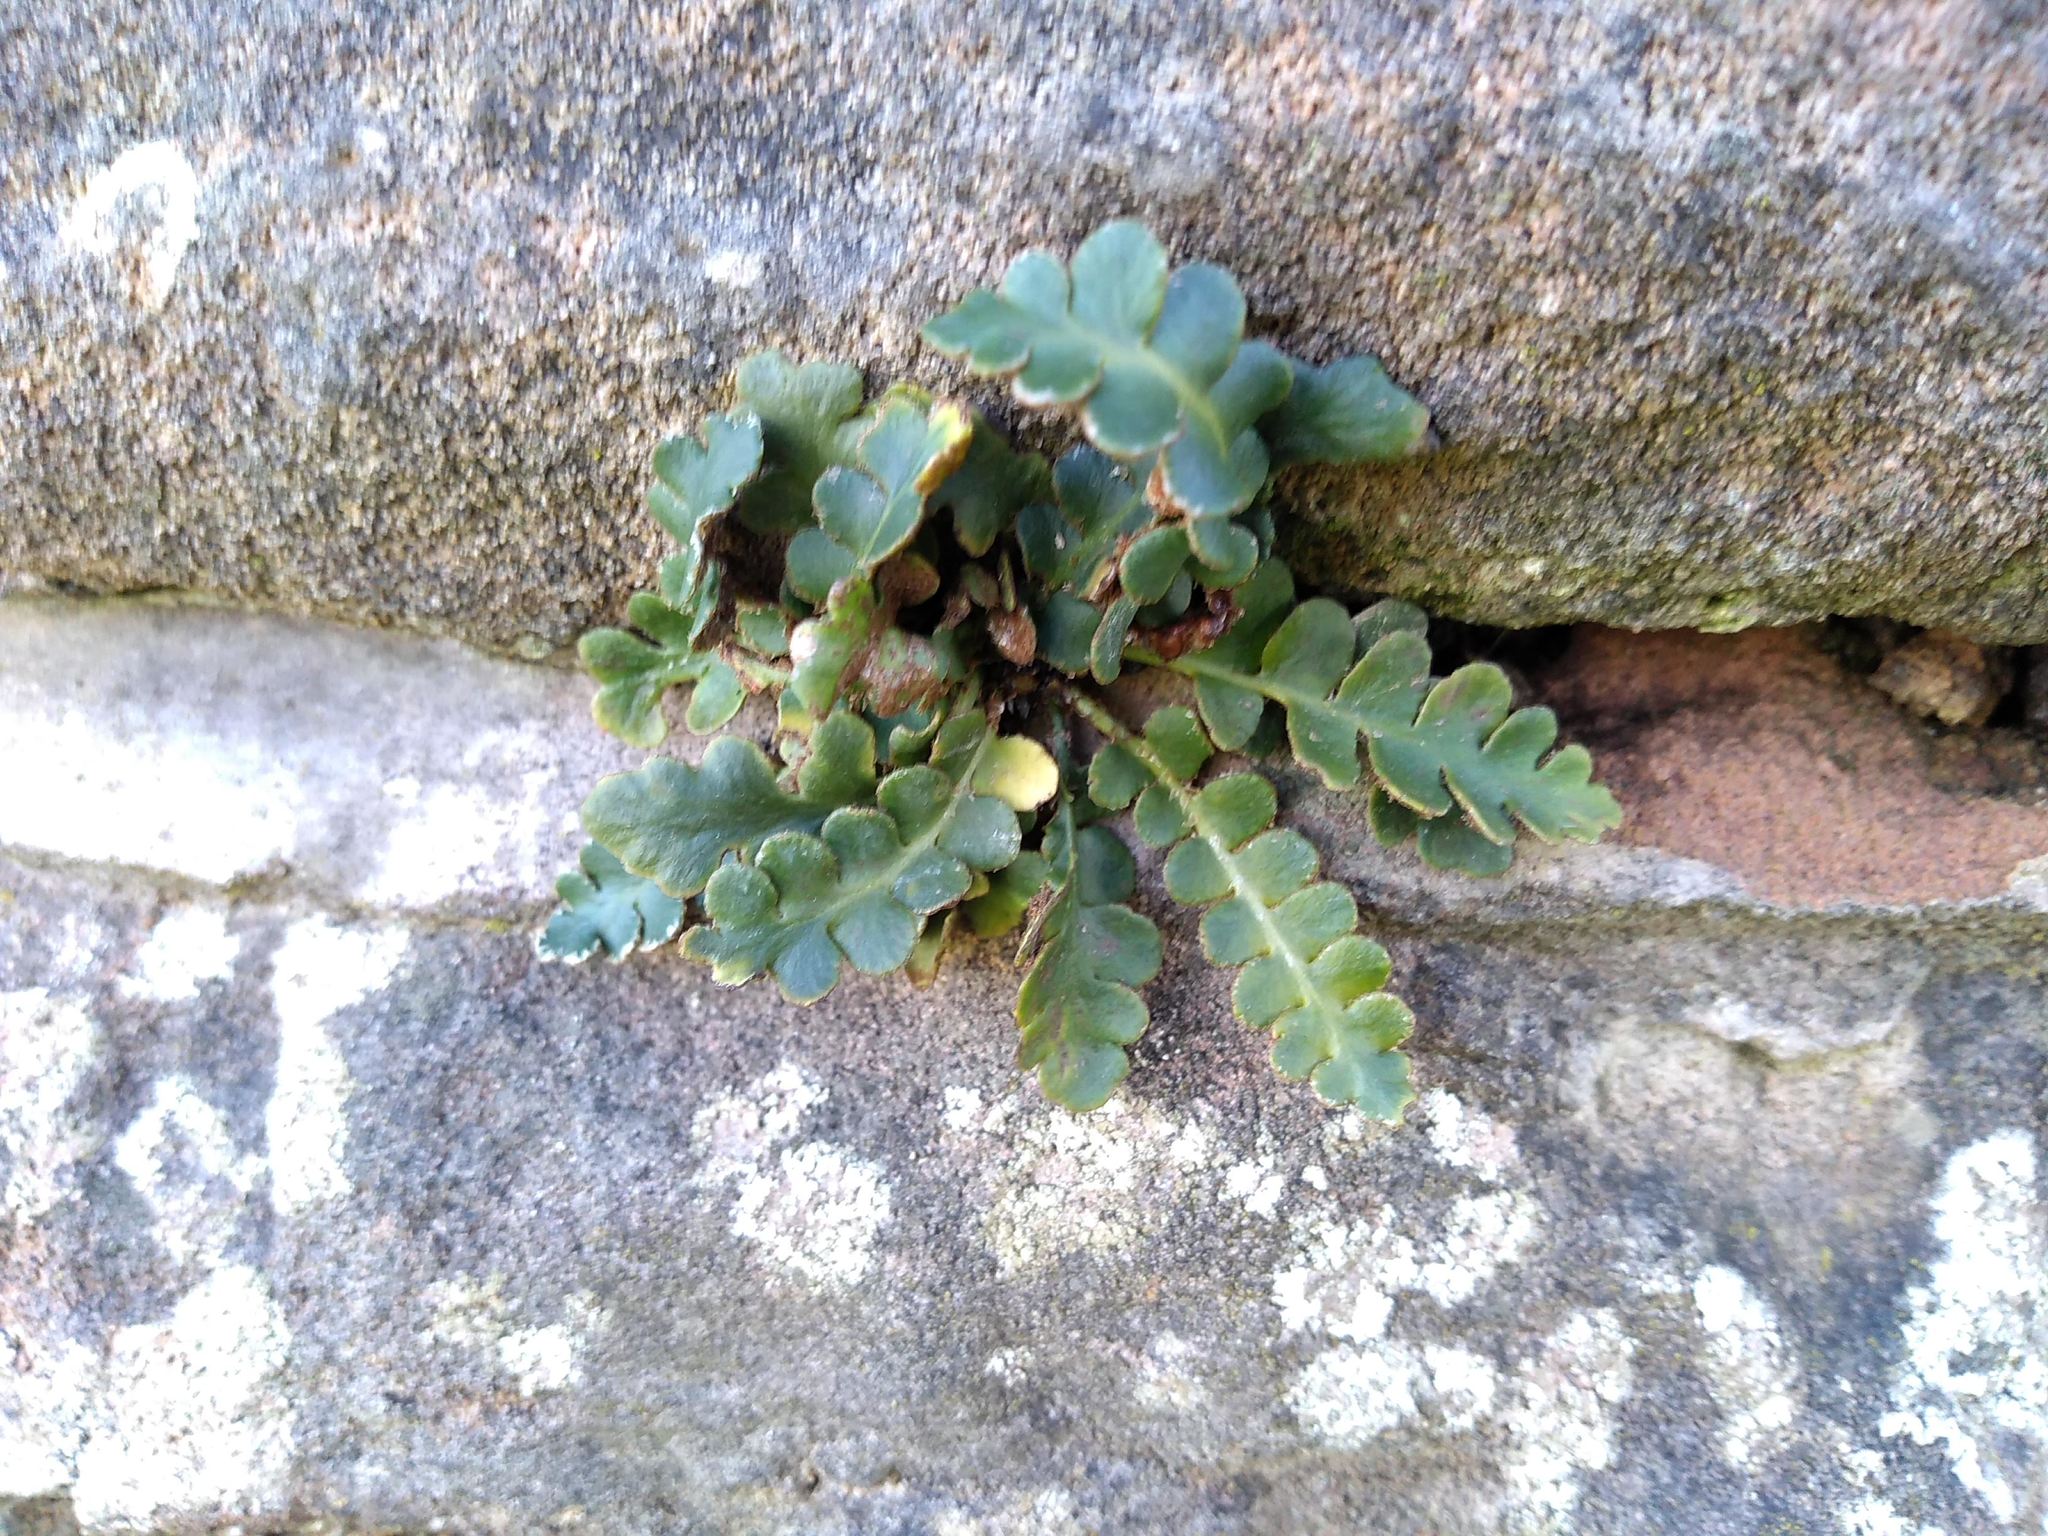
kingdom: Plantae
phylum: Tracheophyta
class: Polypodiopsida
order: Polypodiales
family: Aspleniaceae
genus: Asplenium
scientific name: Asplenium ceterach
